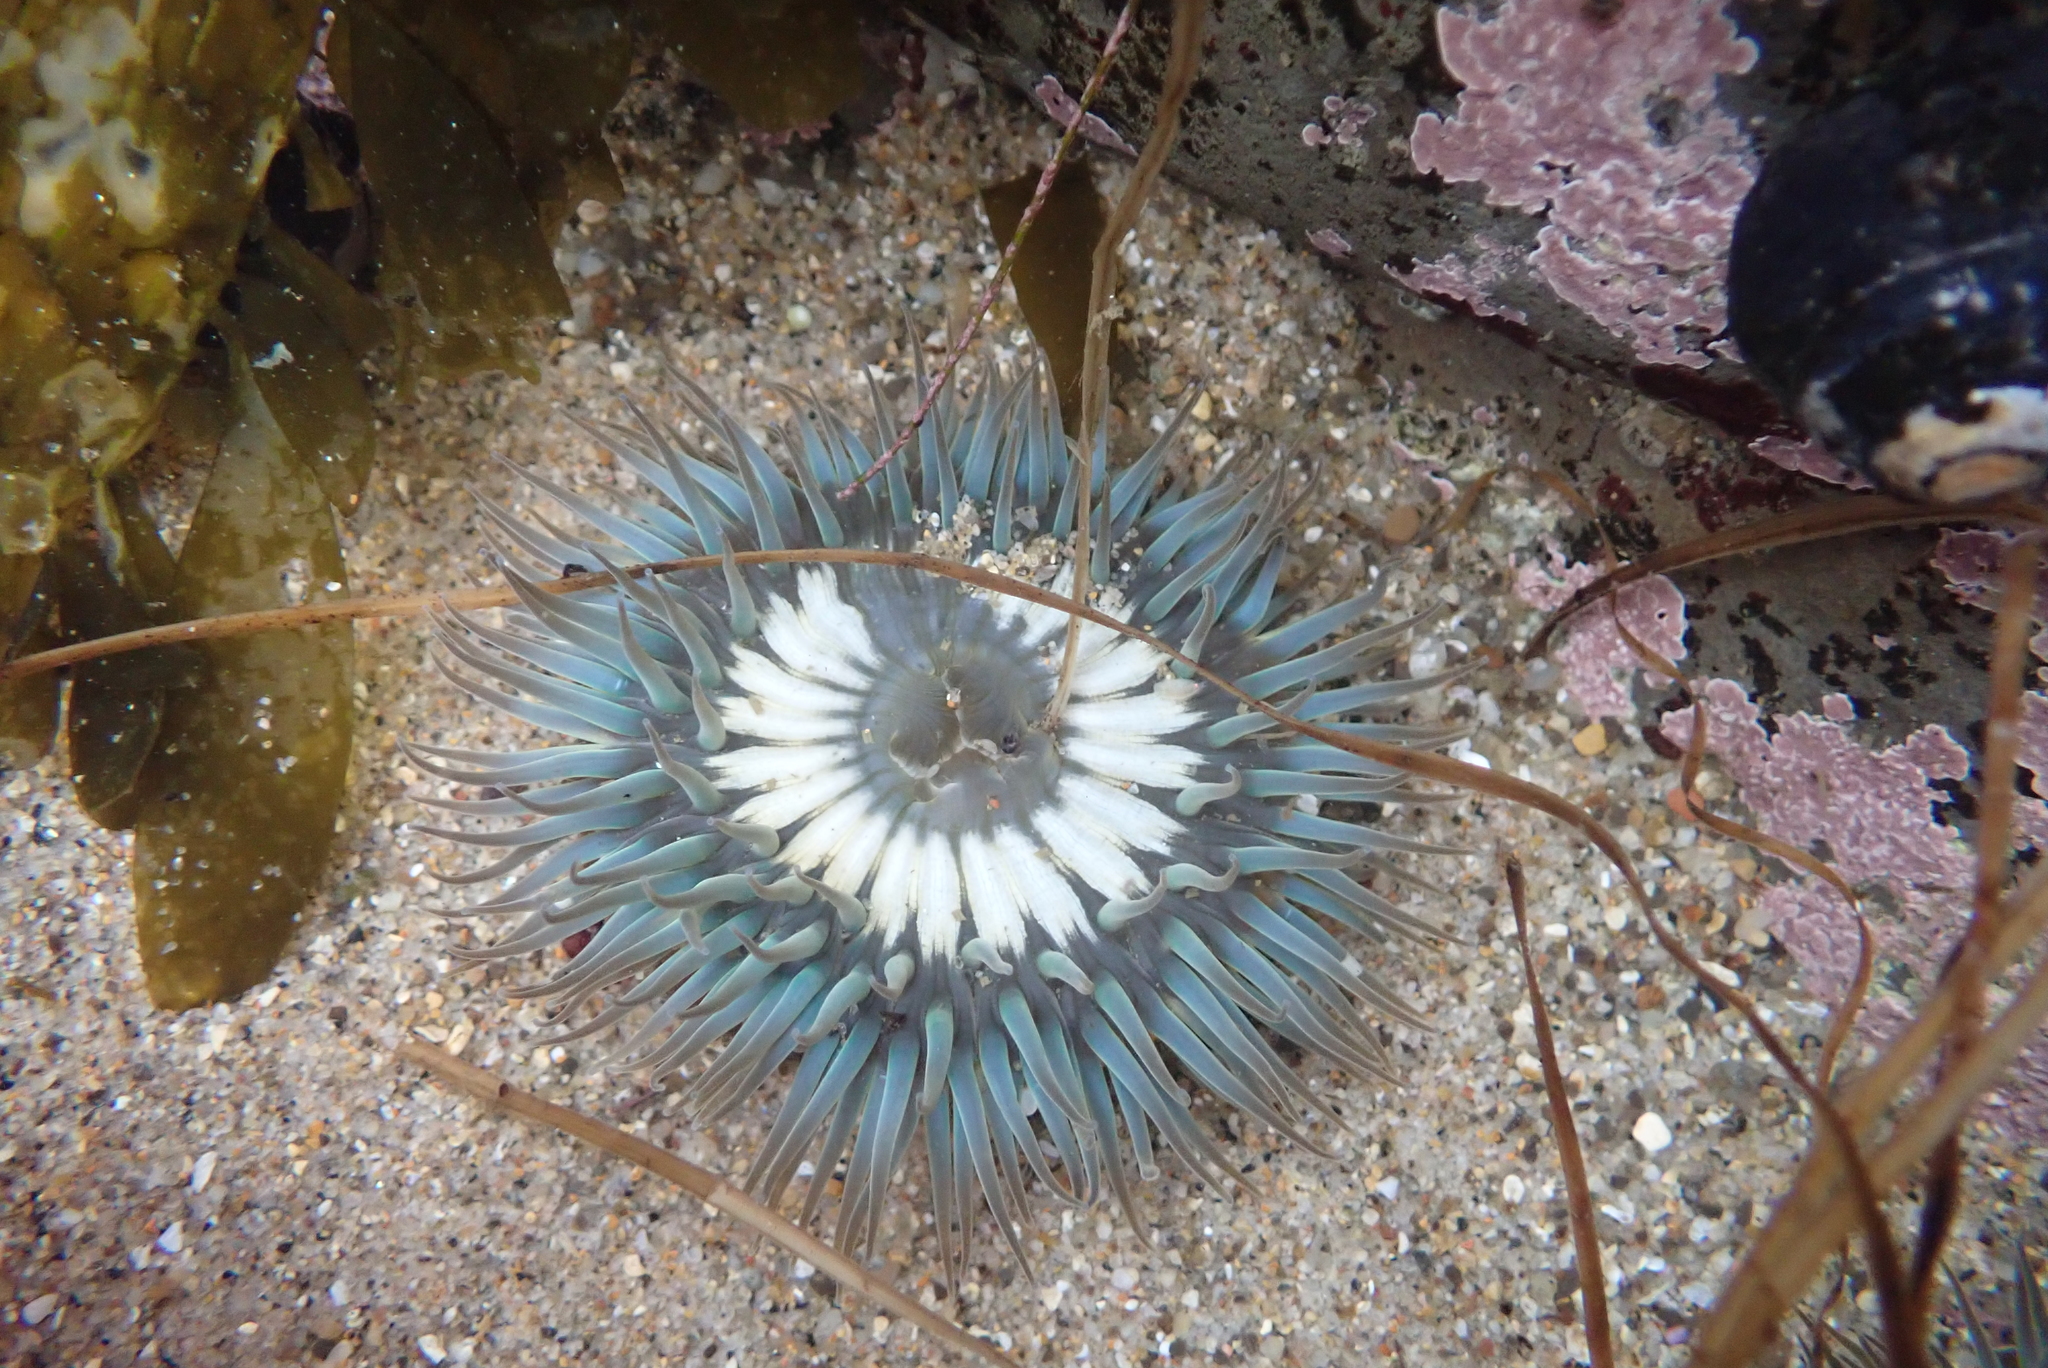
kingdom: Animalia
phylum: Cnidaria
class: Anthozoa
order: Actiniaria
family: Actiniidae
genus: Anthopleura
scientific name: Anthopleura sola
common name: Sun anemone
